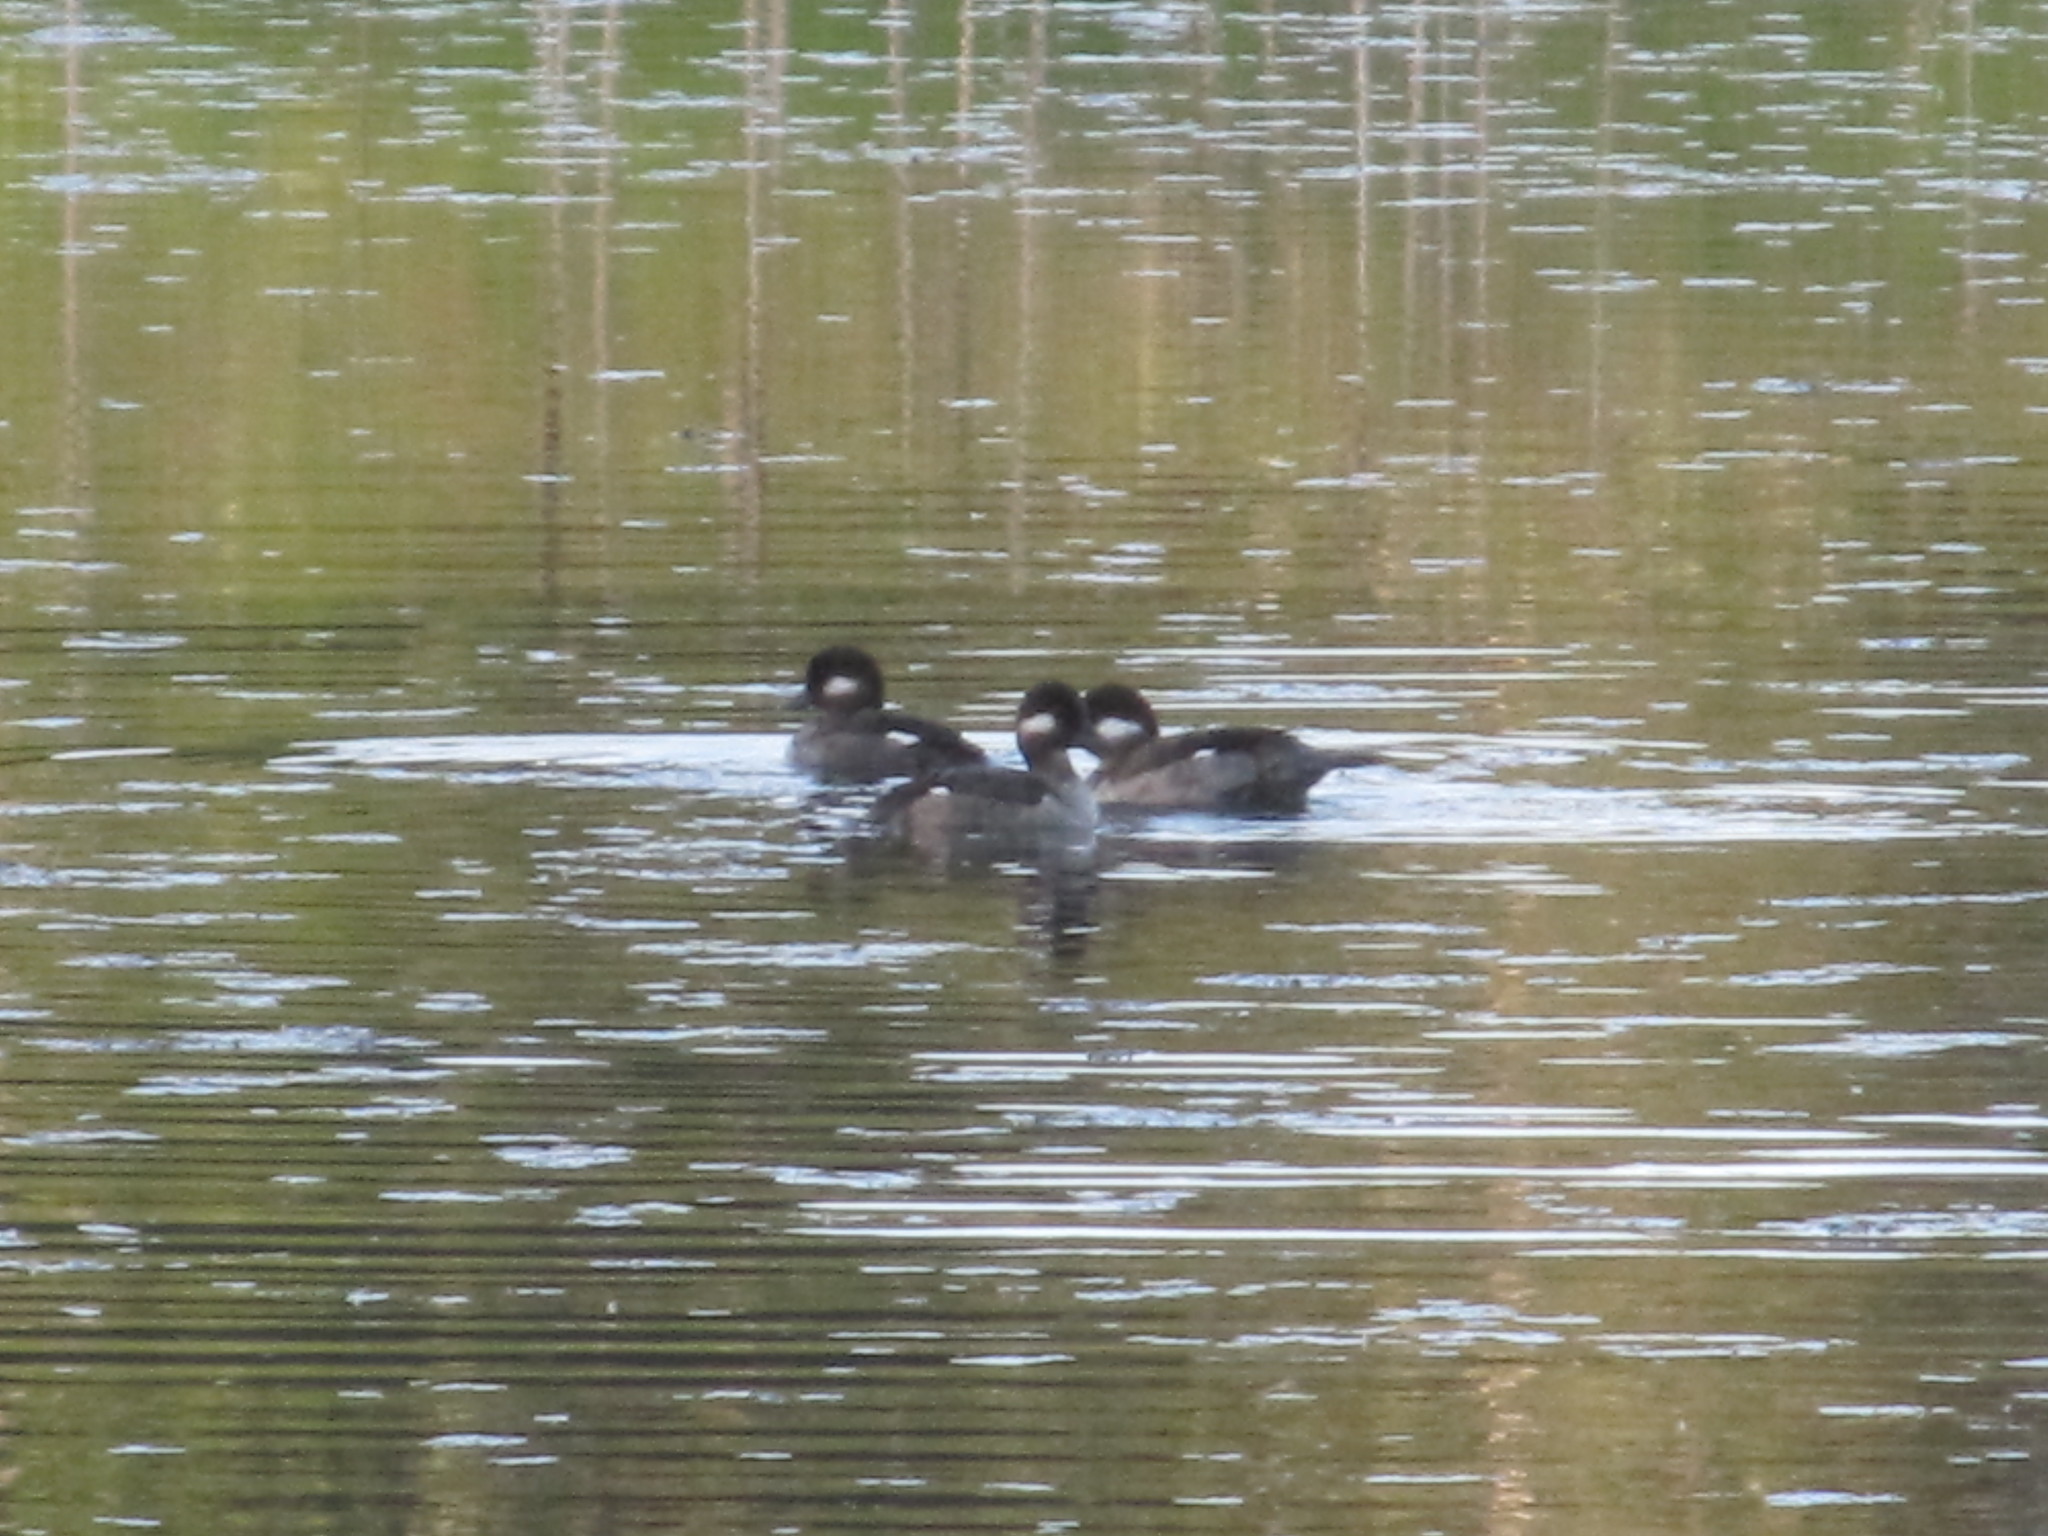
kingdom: Animalia
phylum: Chordata
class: Aves
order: Anseriformes
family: Anatidae
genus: Bucephala
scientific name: Bucephala albeola
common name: Bufflehead
